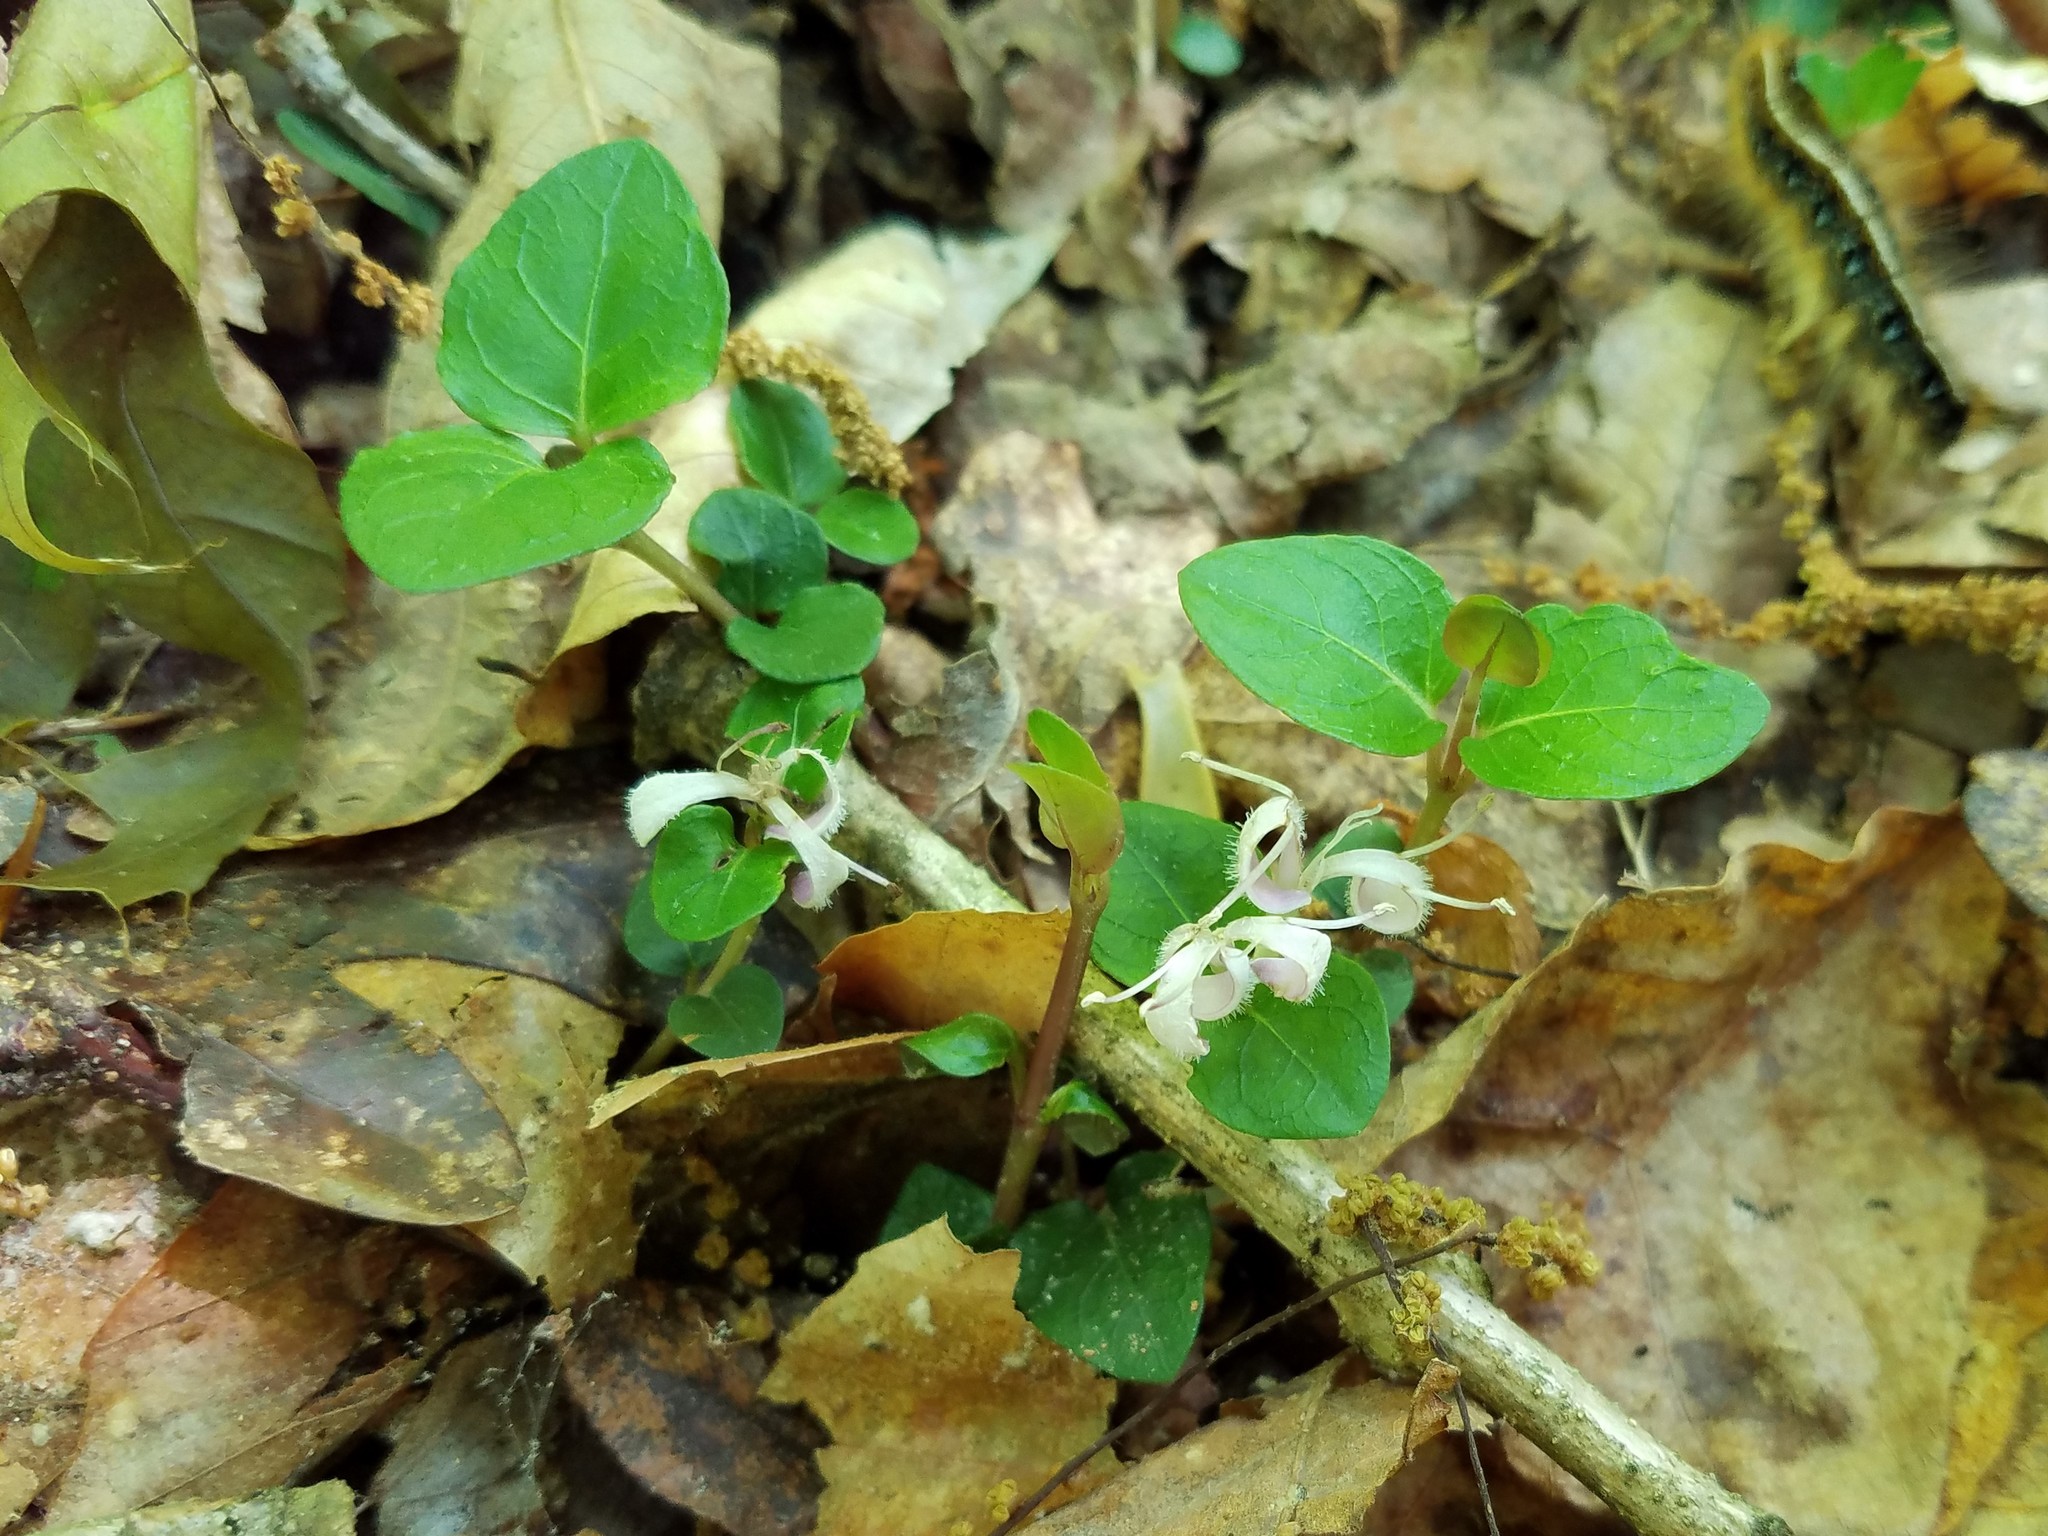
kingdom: Plantae
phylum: Tracheophyta
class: Magnoliopsida
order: Gentianales
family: Rubiaceae
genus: Mitchella
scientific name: Mitchella repens
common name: Partridge-berry
